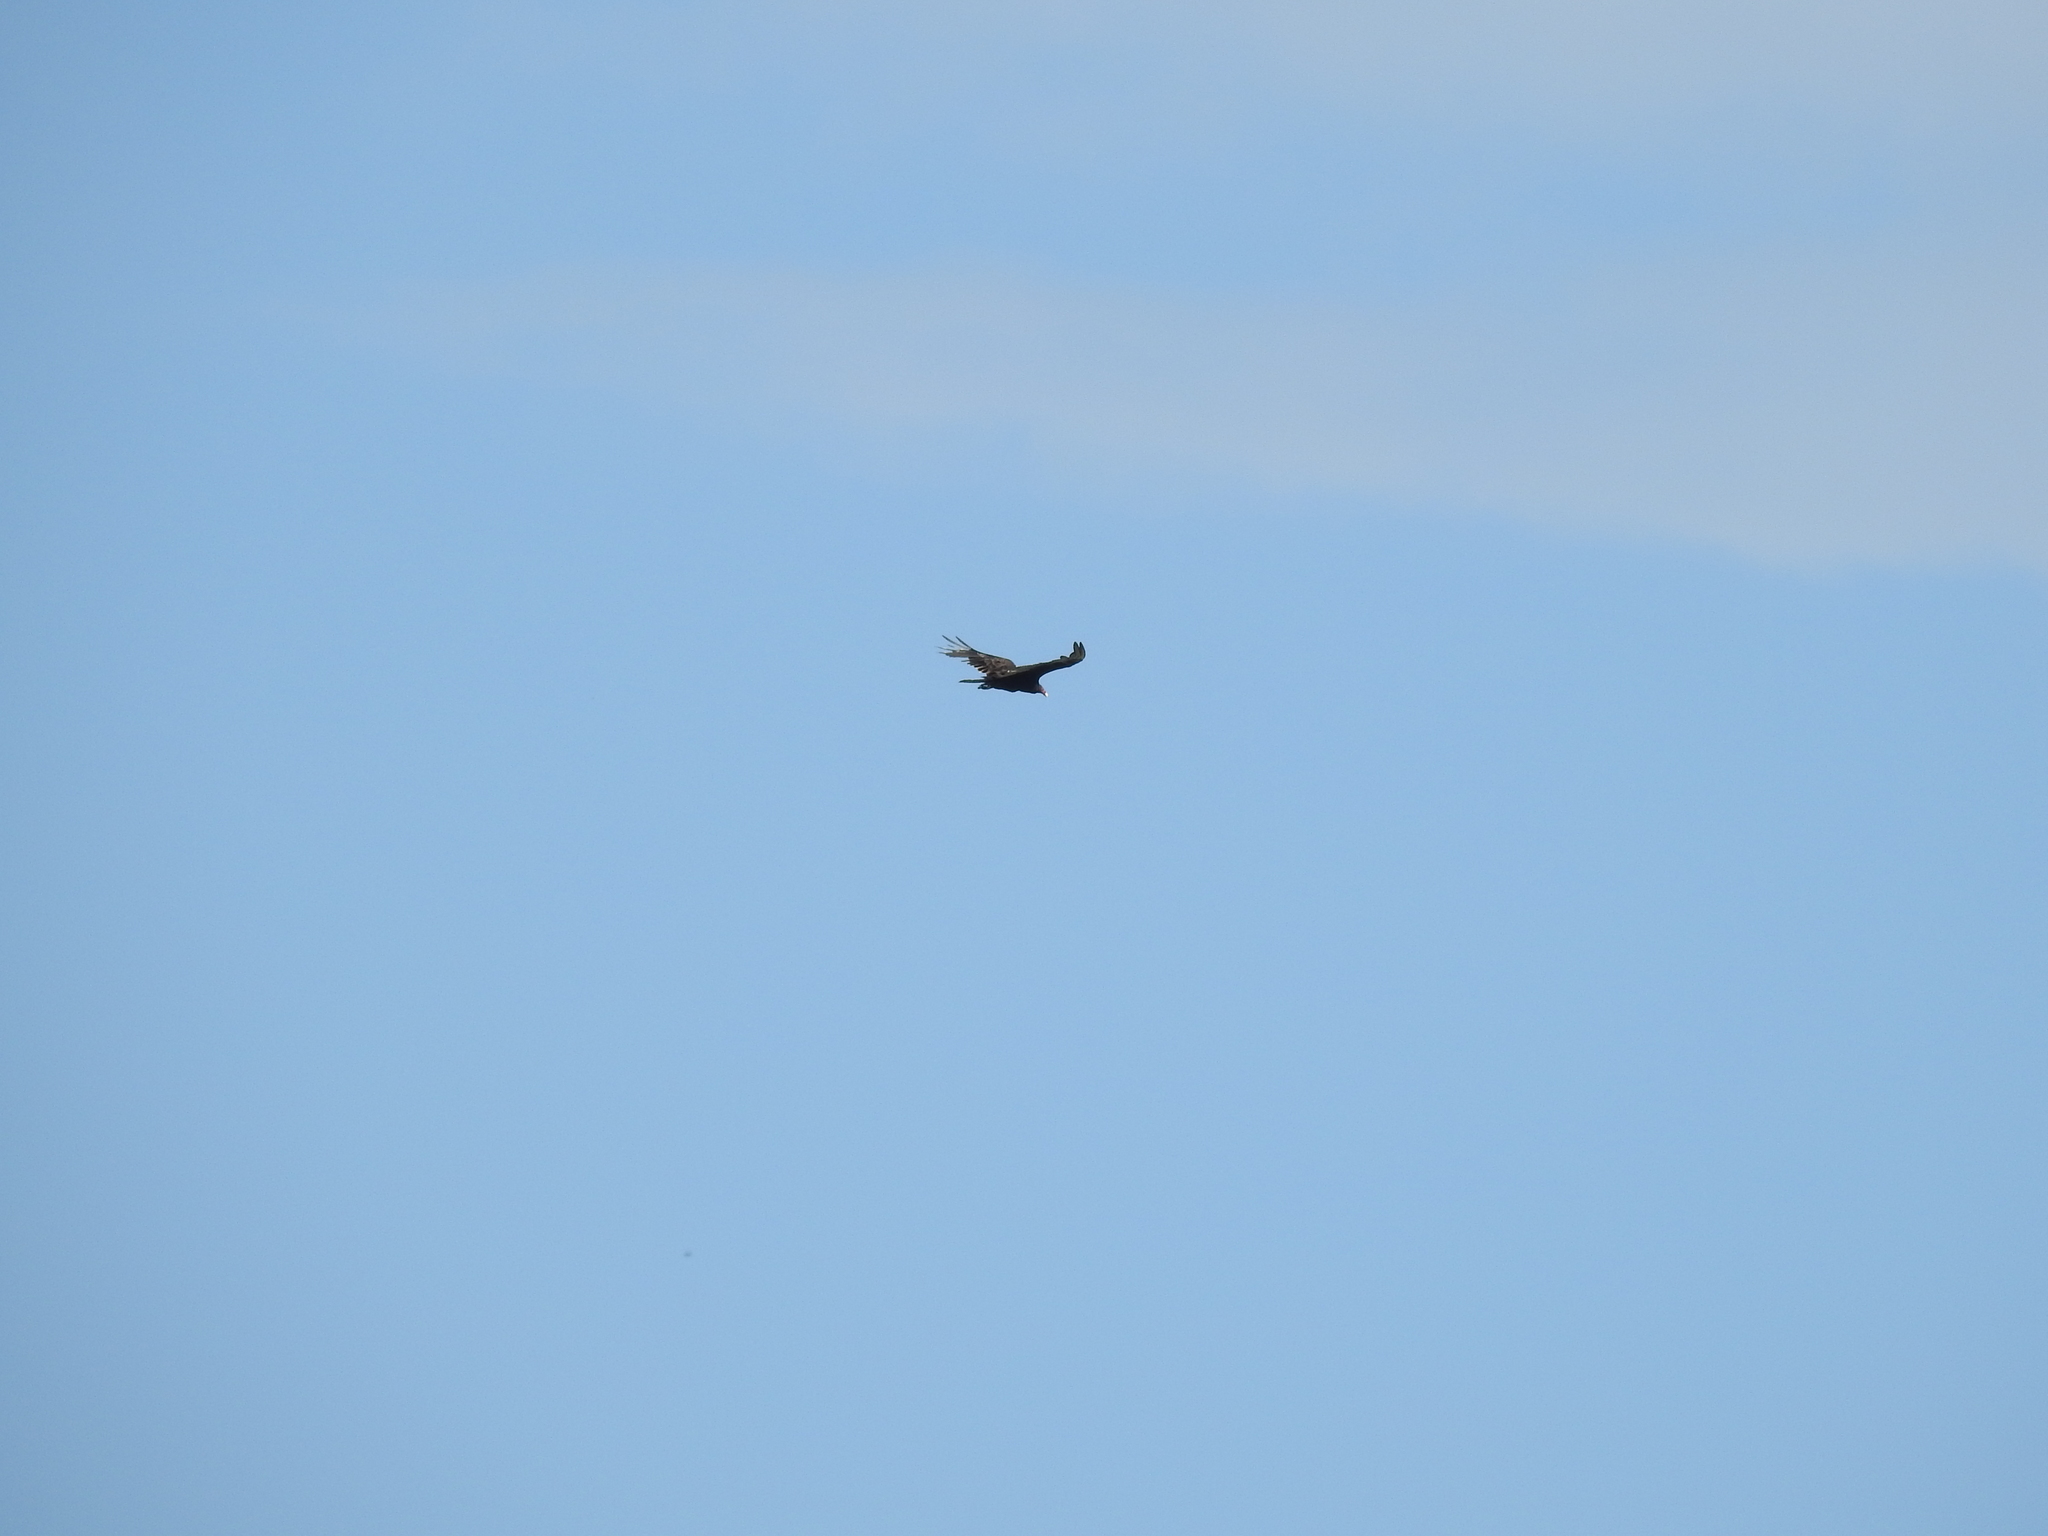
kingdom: Animalia
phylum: Chordata
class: Aves
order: Accipitriformes
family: Cathartidae
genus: Cathartes
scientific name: Cathartes aura
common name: Turkey vulture
